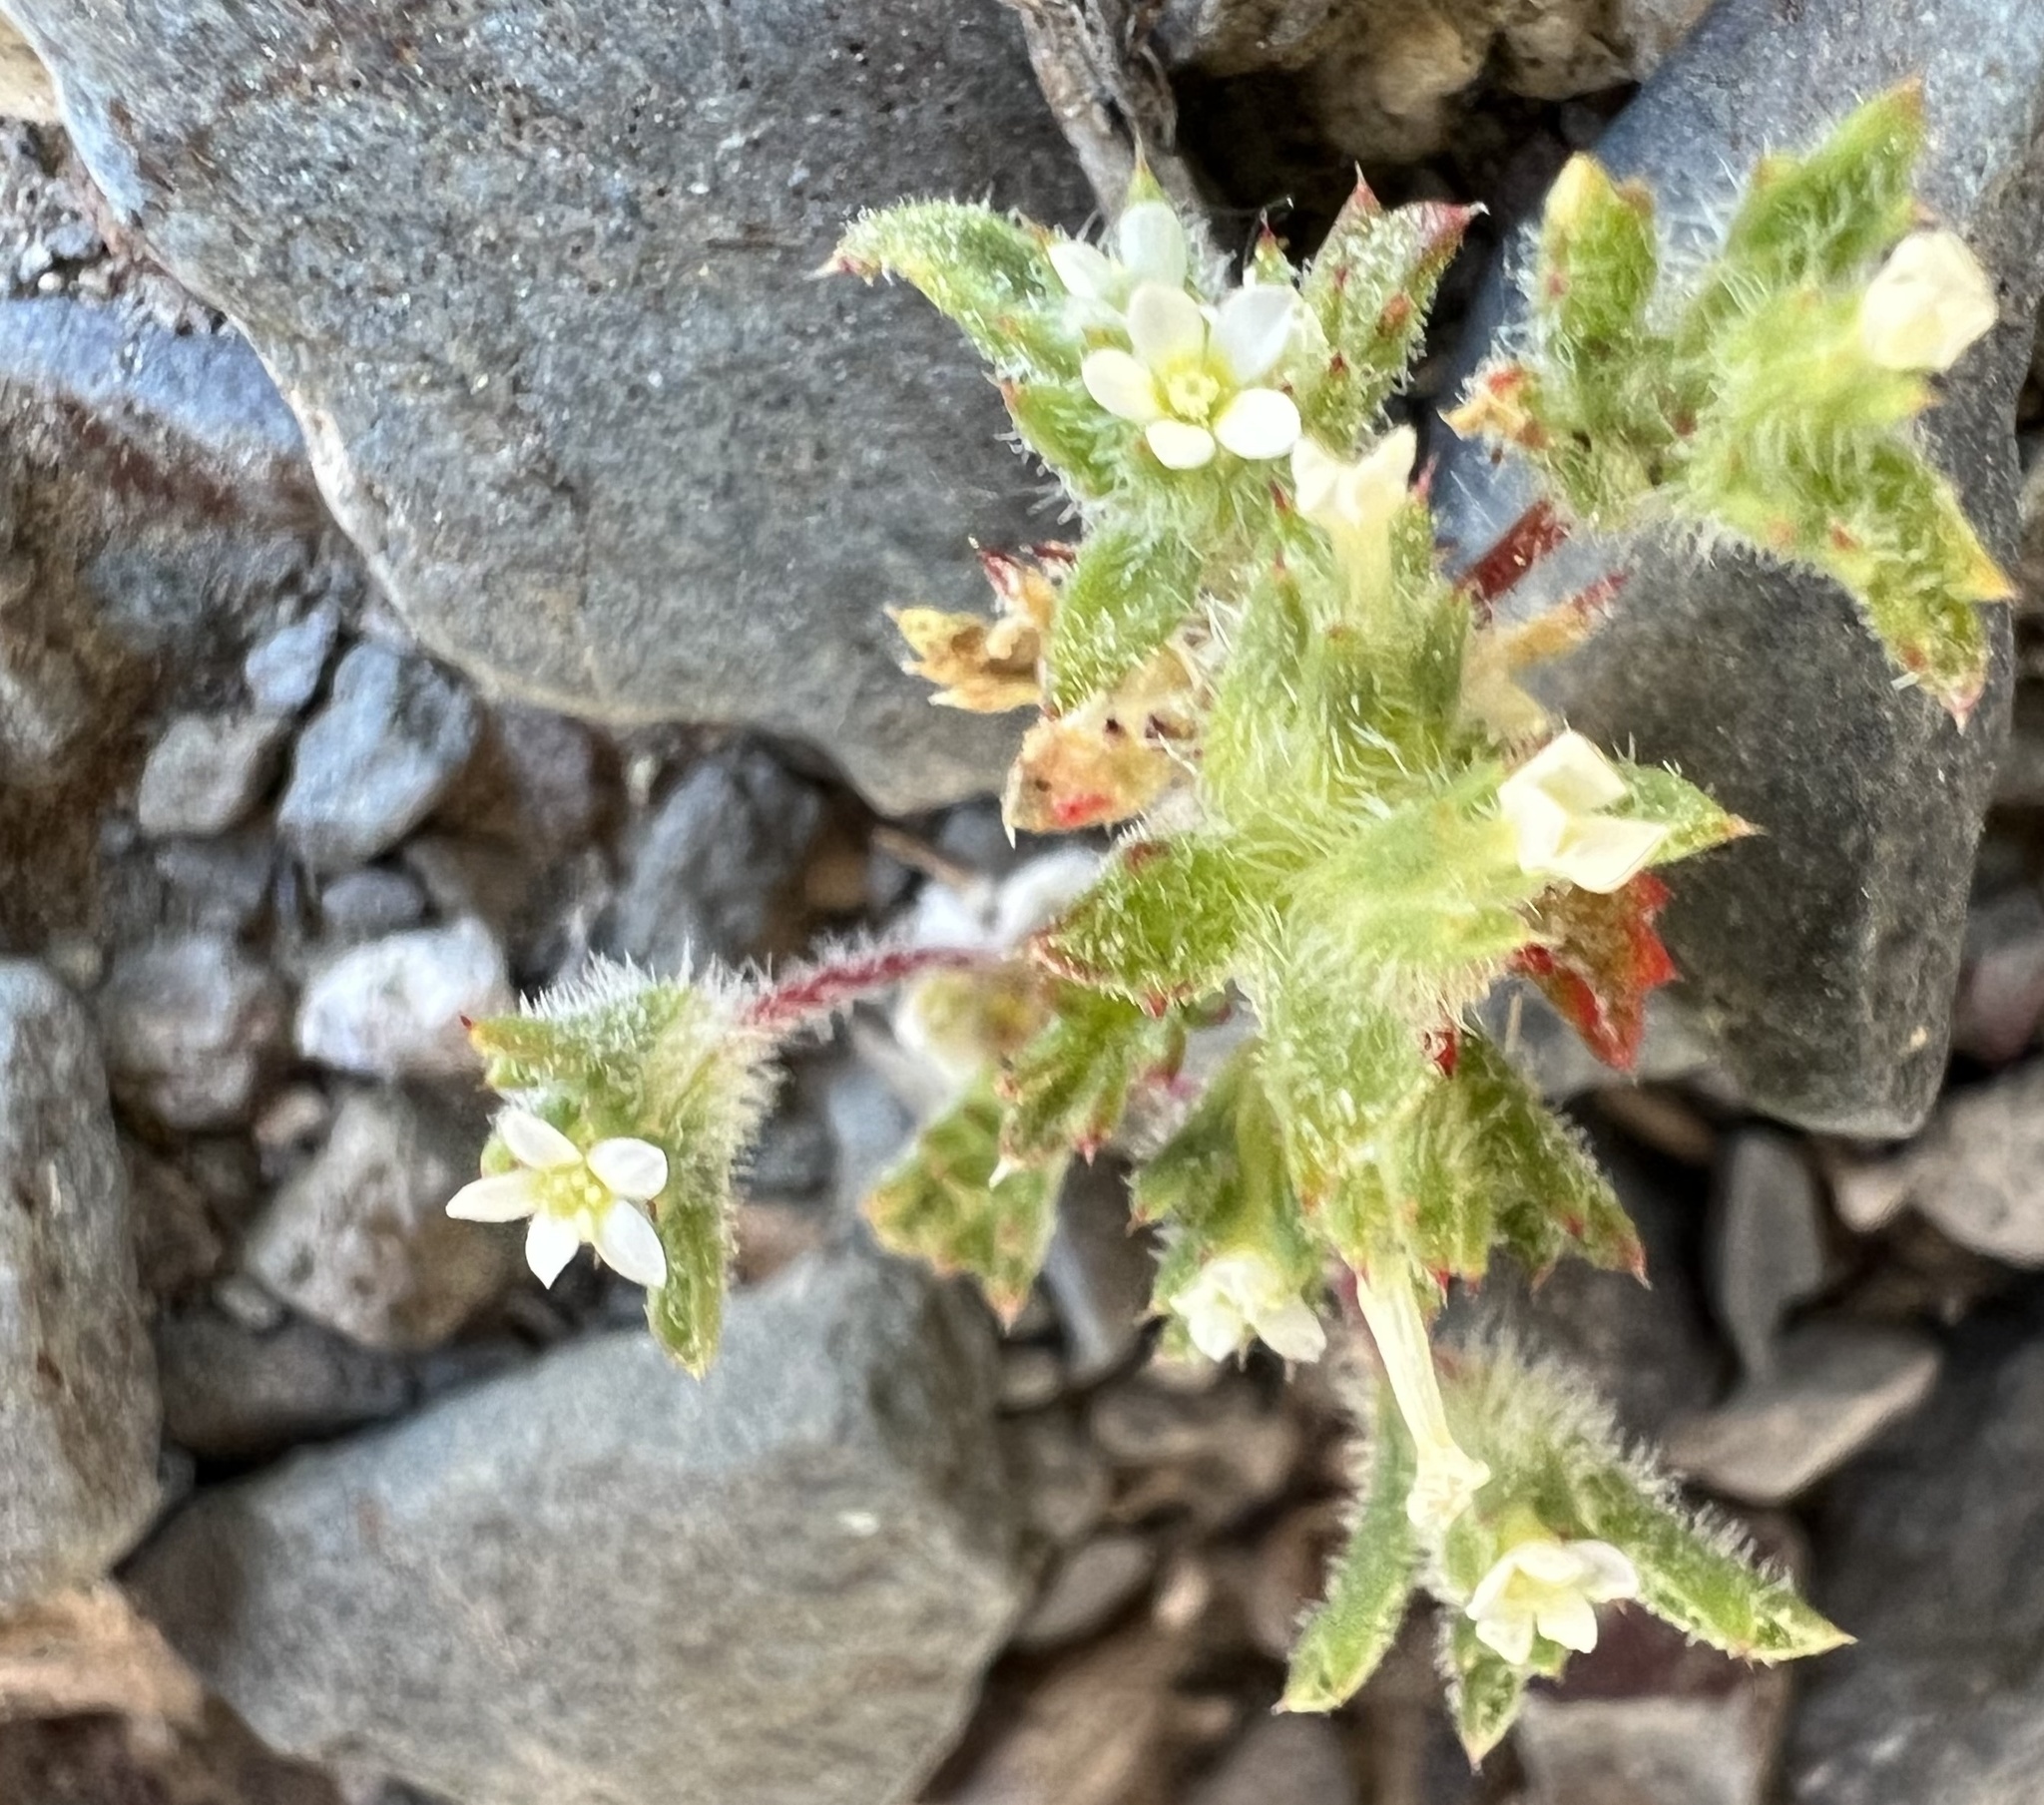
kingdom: Plantae
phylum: Tracheophyta
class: Magnoliopsida
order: Ericales
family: Polemoniaceae
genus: Ipomopsis
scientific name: Ipomopsis polycladon
